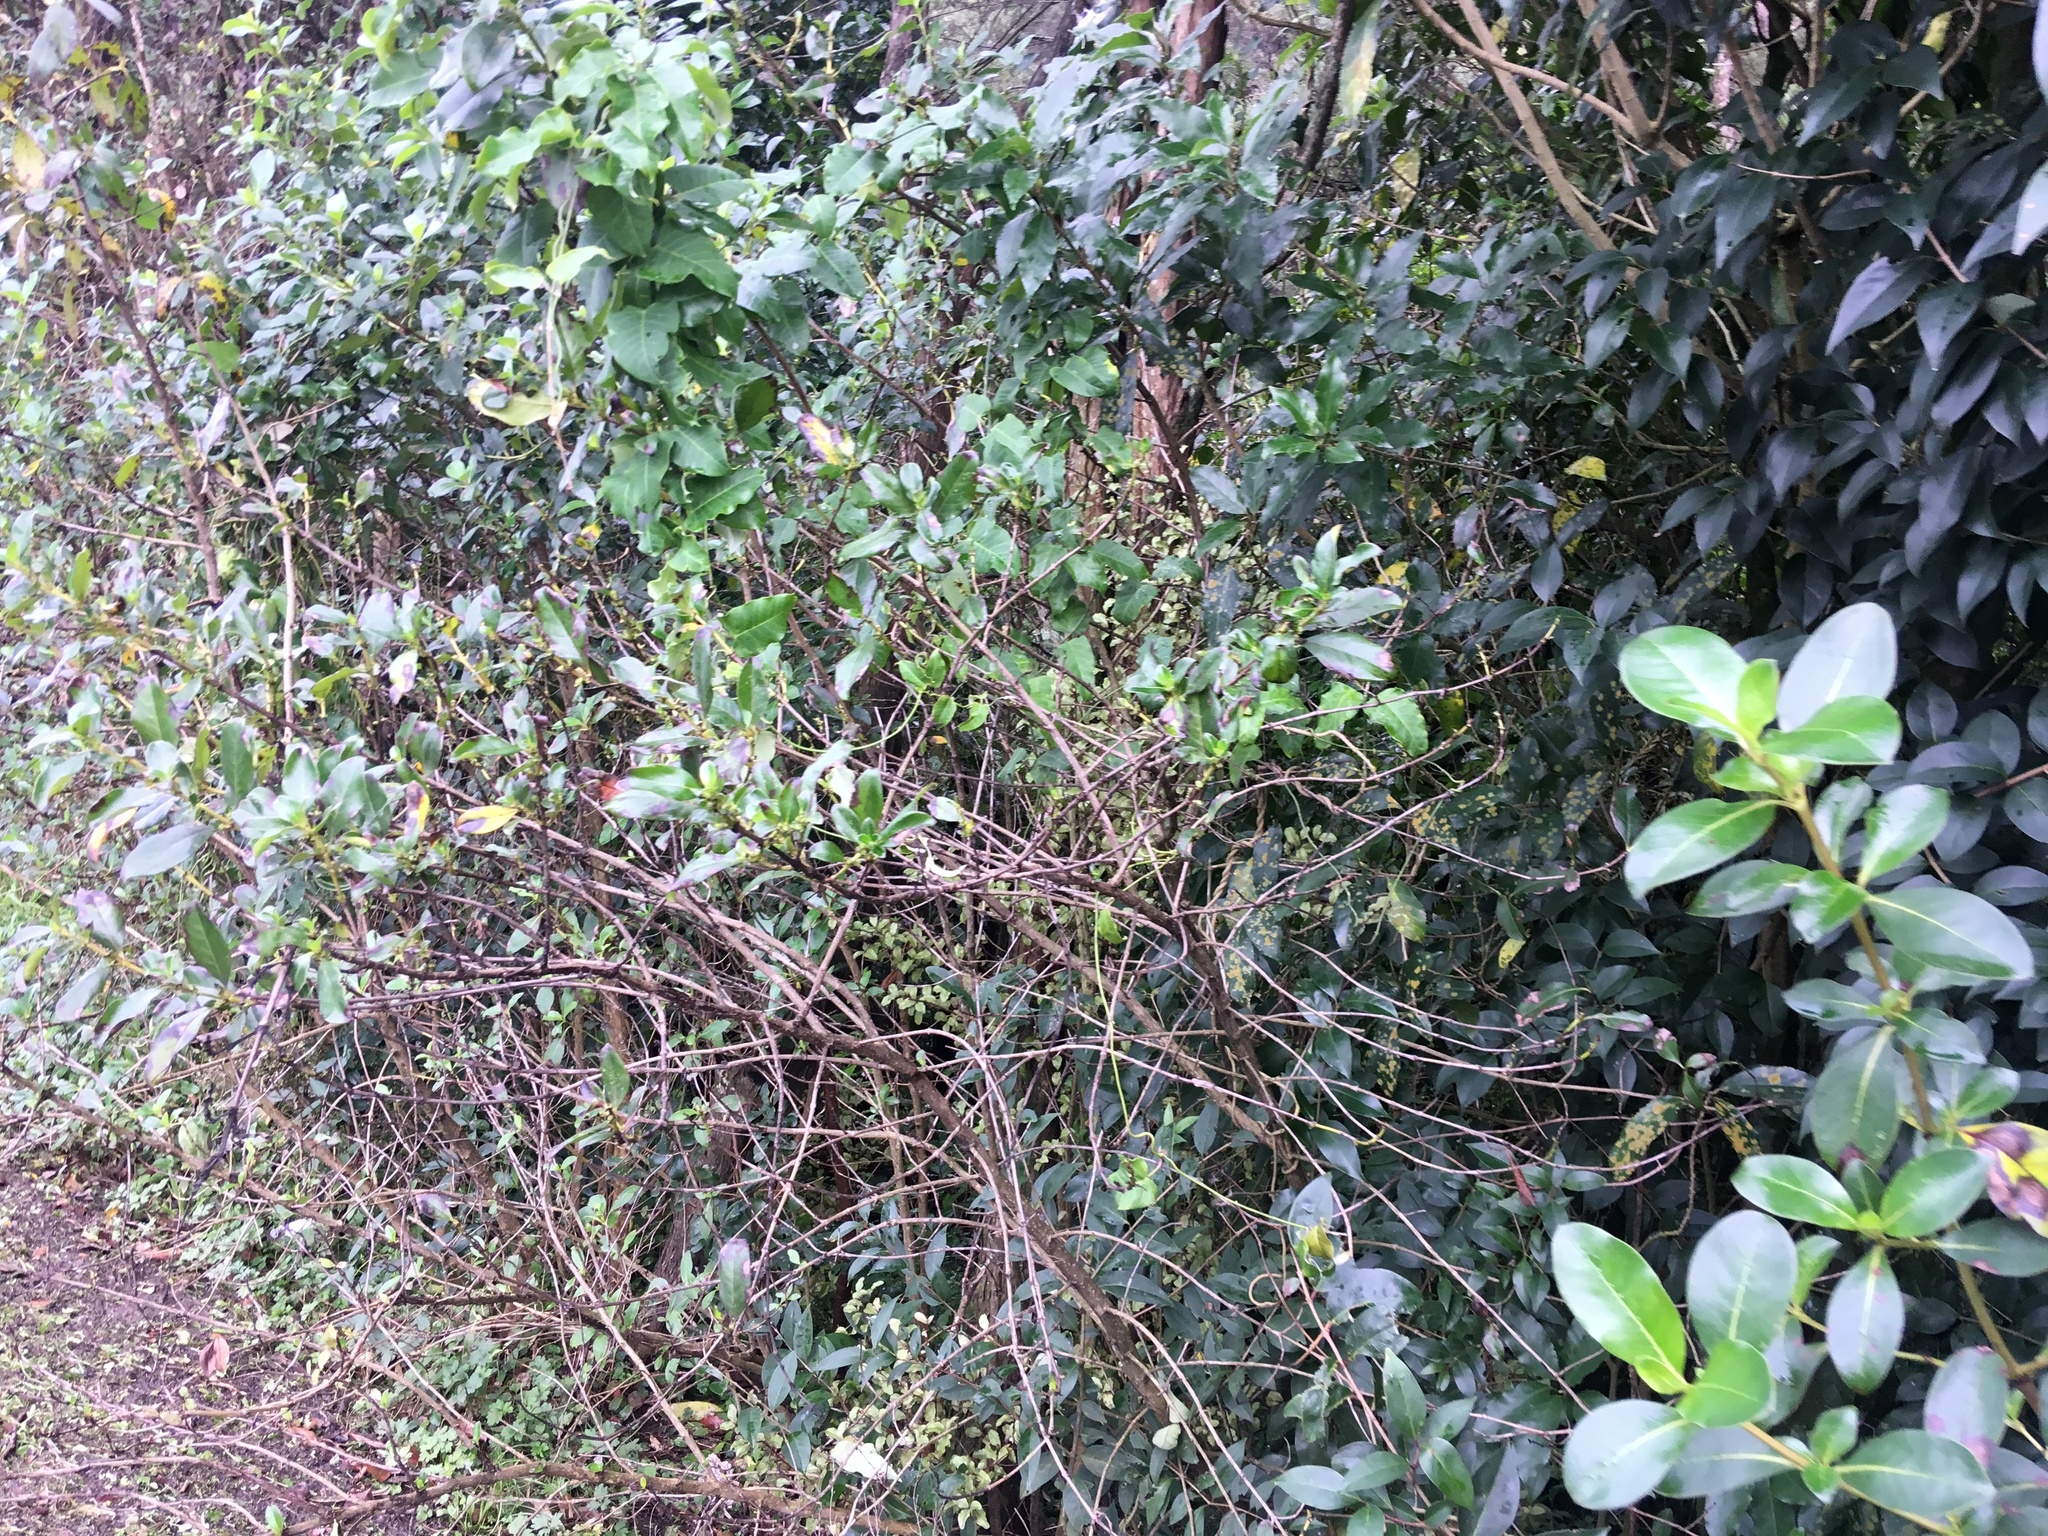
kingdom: Plantae
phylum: Tracheophyta
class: Magnoliopsida
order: Gentianales
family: Apocynaceae
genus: Araujia
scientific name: Araujia sericifera
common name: White bladderflower
